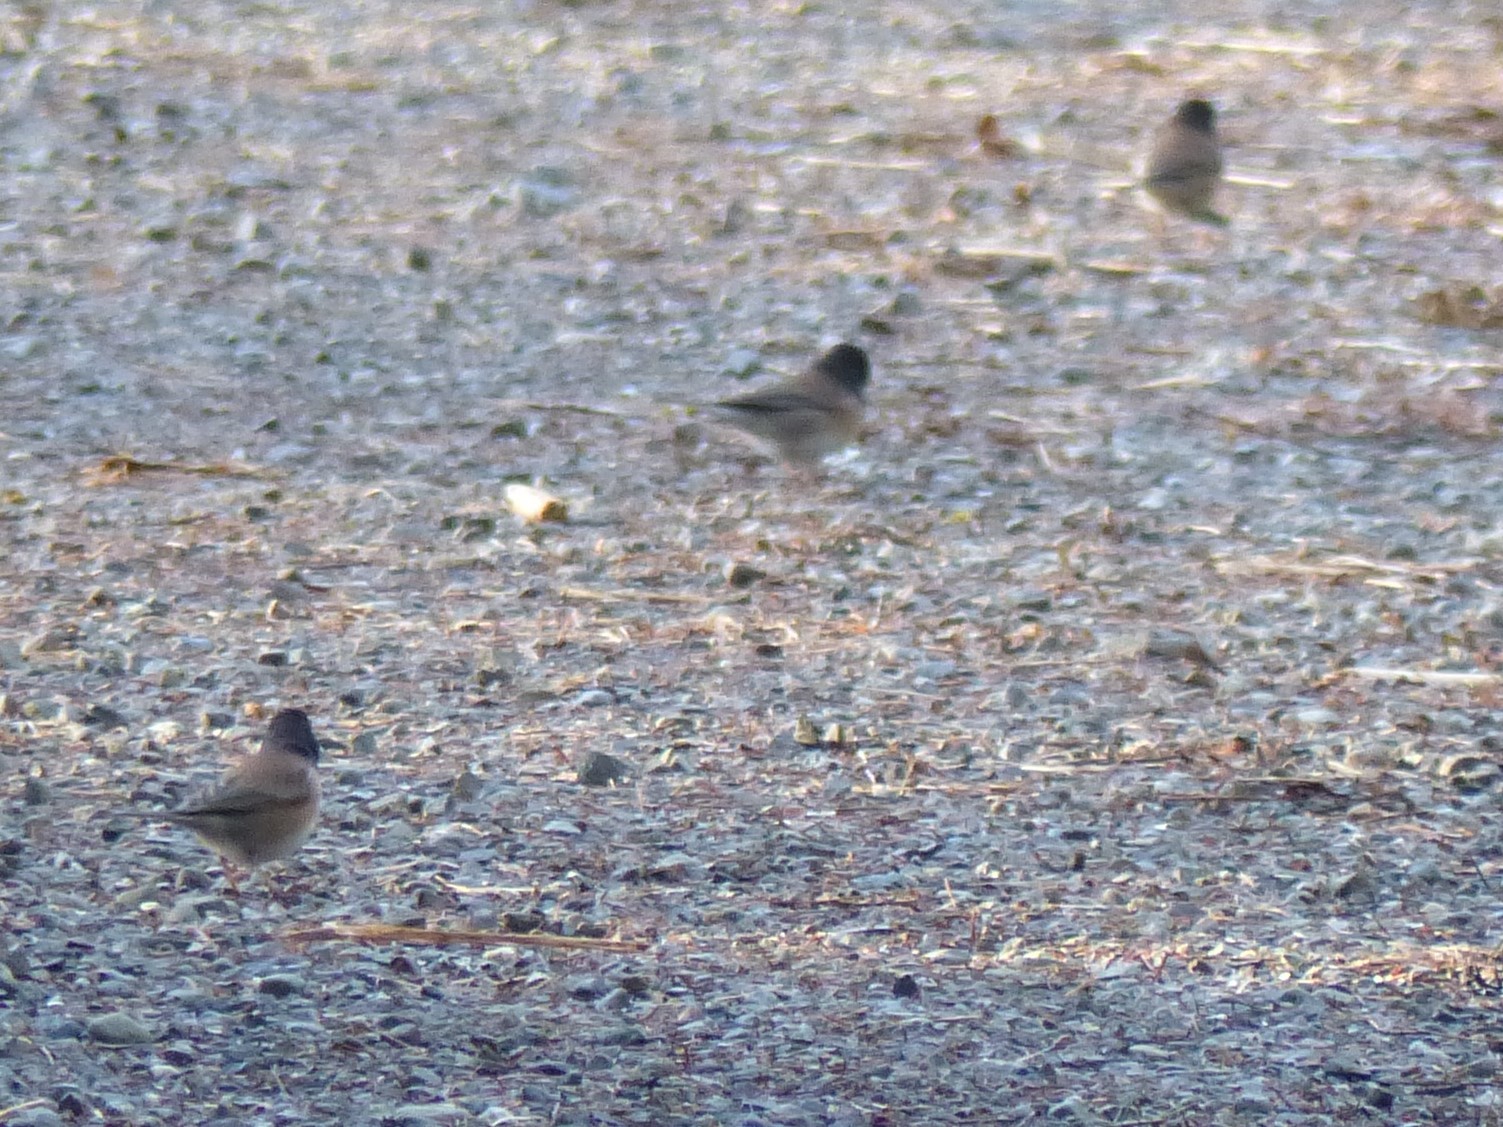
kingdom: Animalia
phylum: Chordata
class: Aves
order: Passeriformes
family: Passerellidae
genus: Junco
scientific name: Junco hyemalis
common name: Dark-eyed junco
